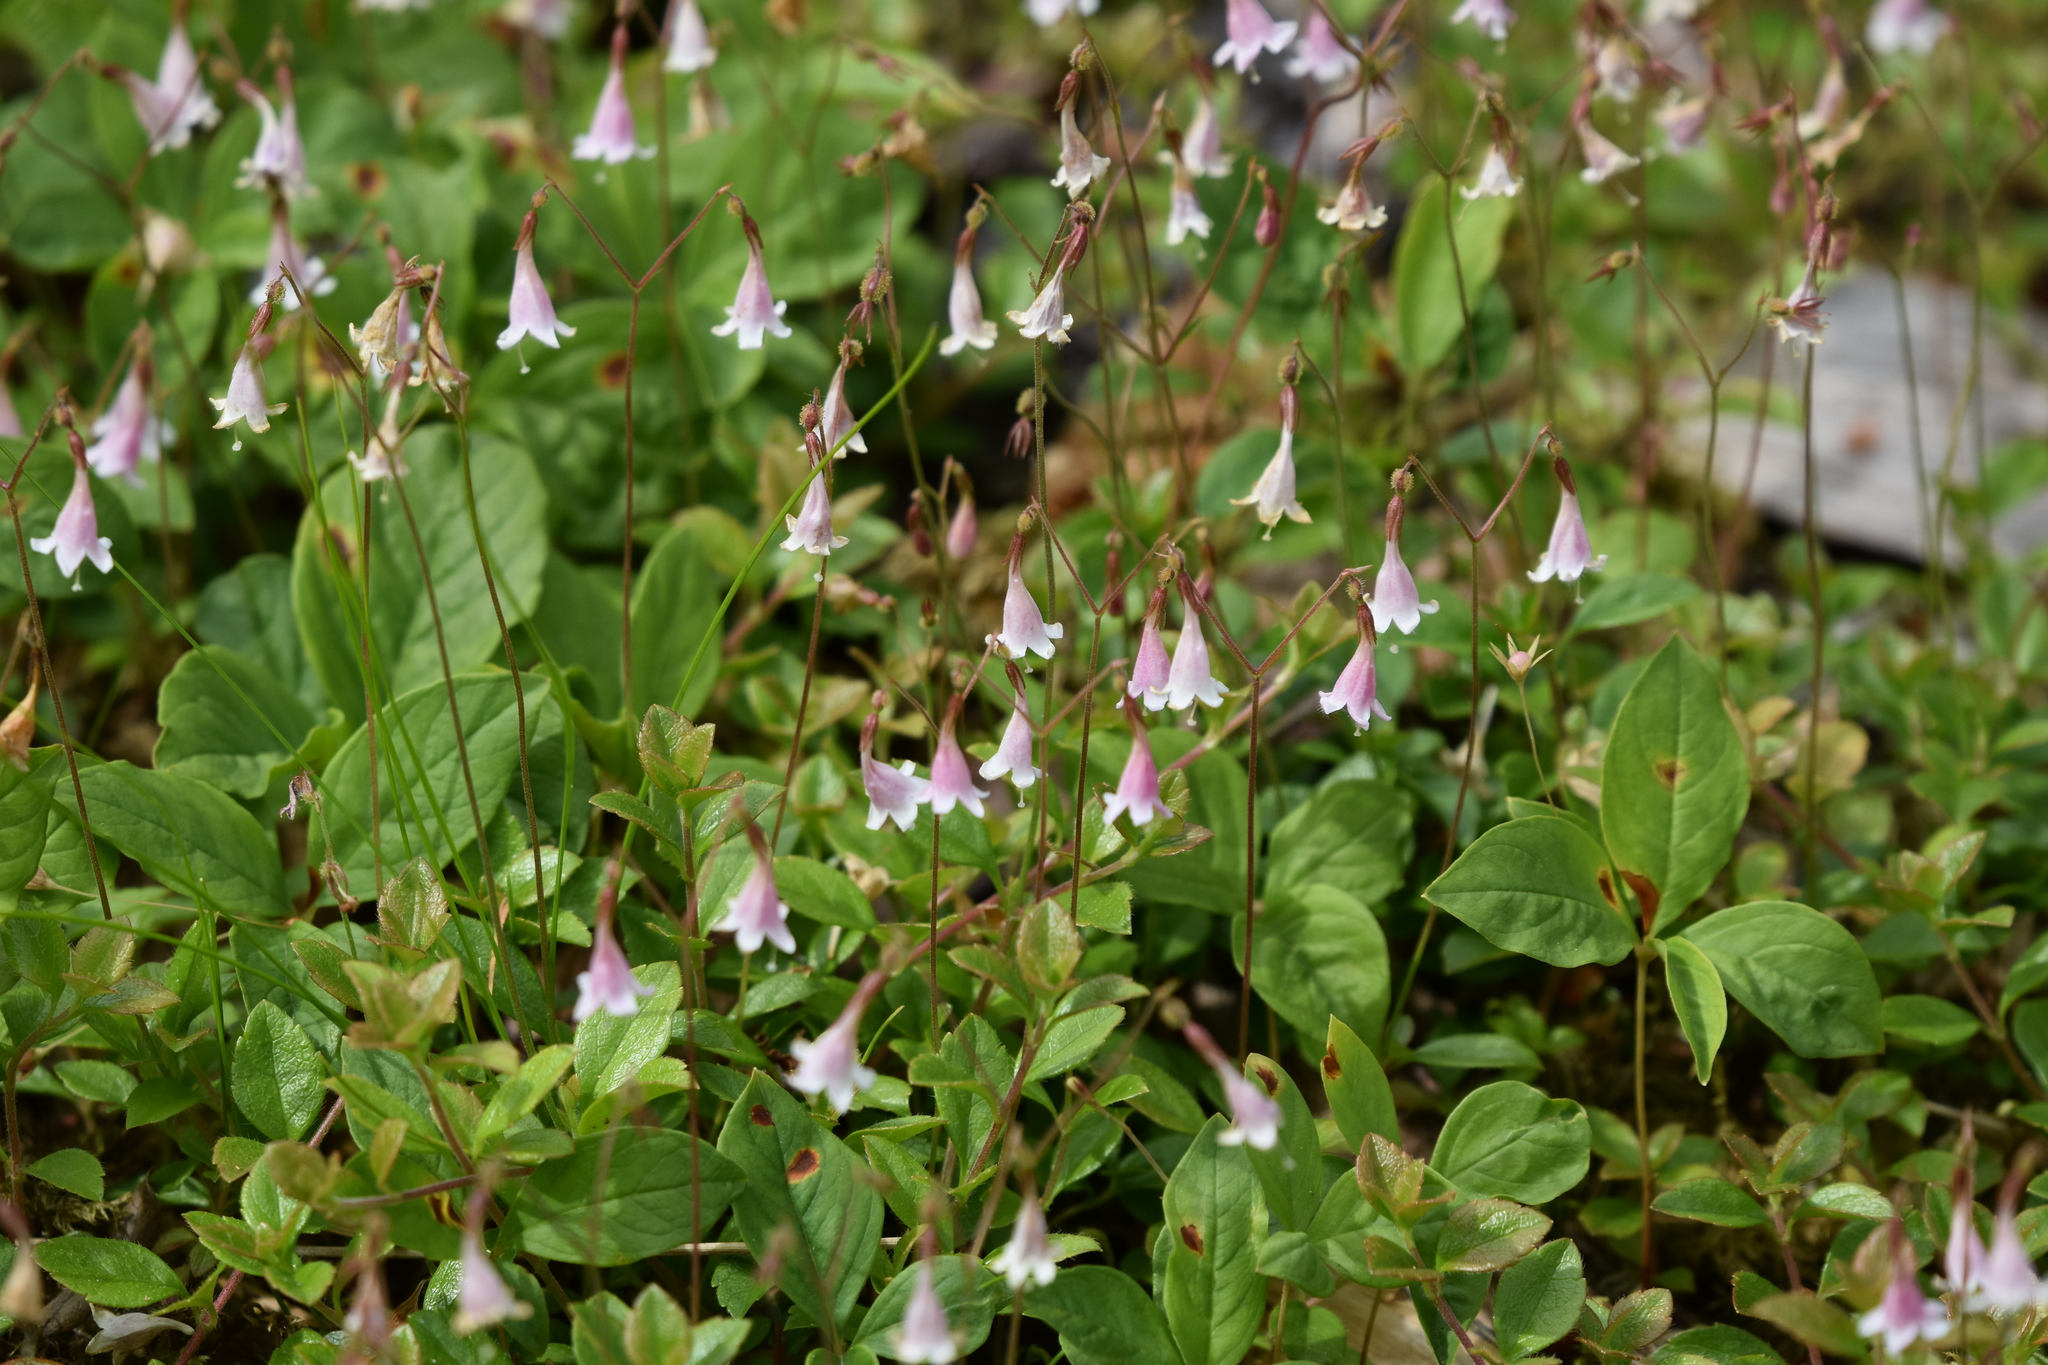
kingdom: Plantae
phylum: Tracheophyta
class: Magnoliopsida
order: Dipsacales
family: Caprifoliaceae
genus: Linnaea
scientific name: Linnaea borealis
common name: Twinflower
